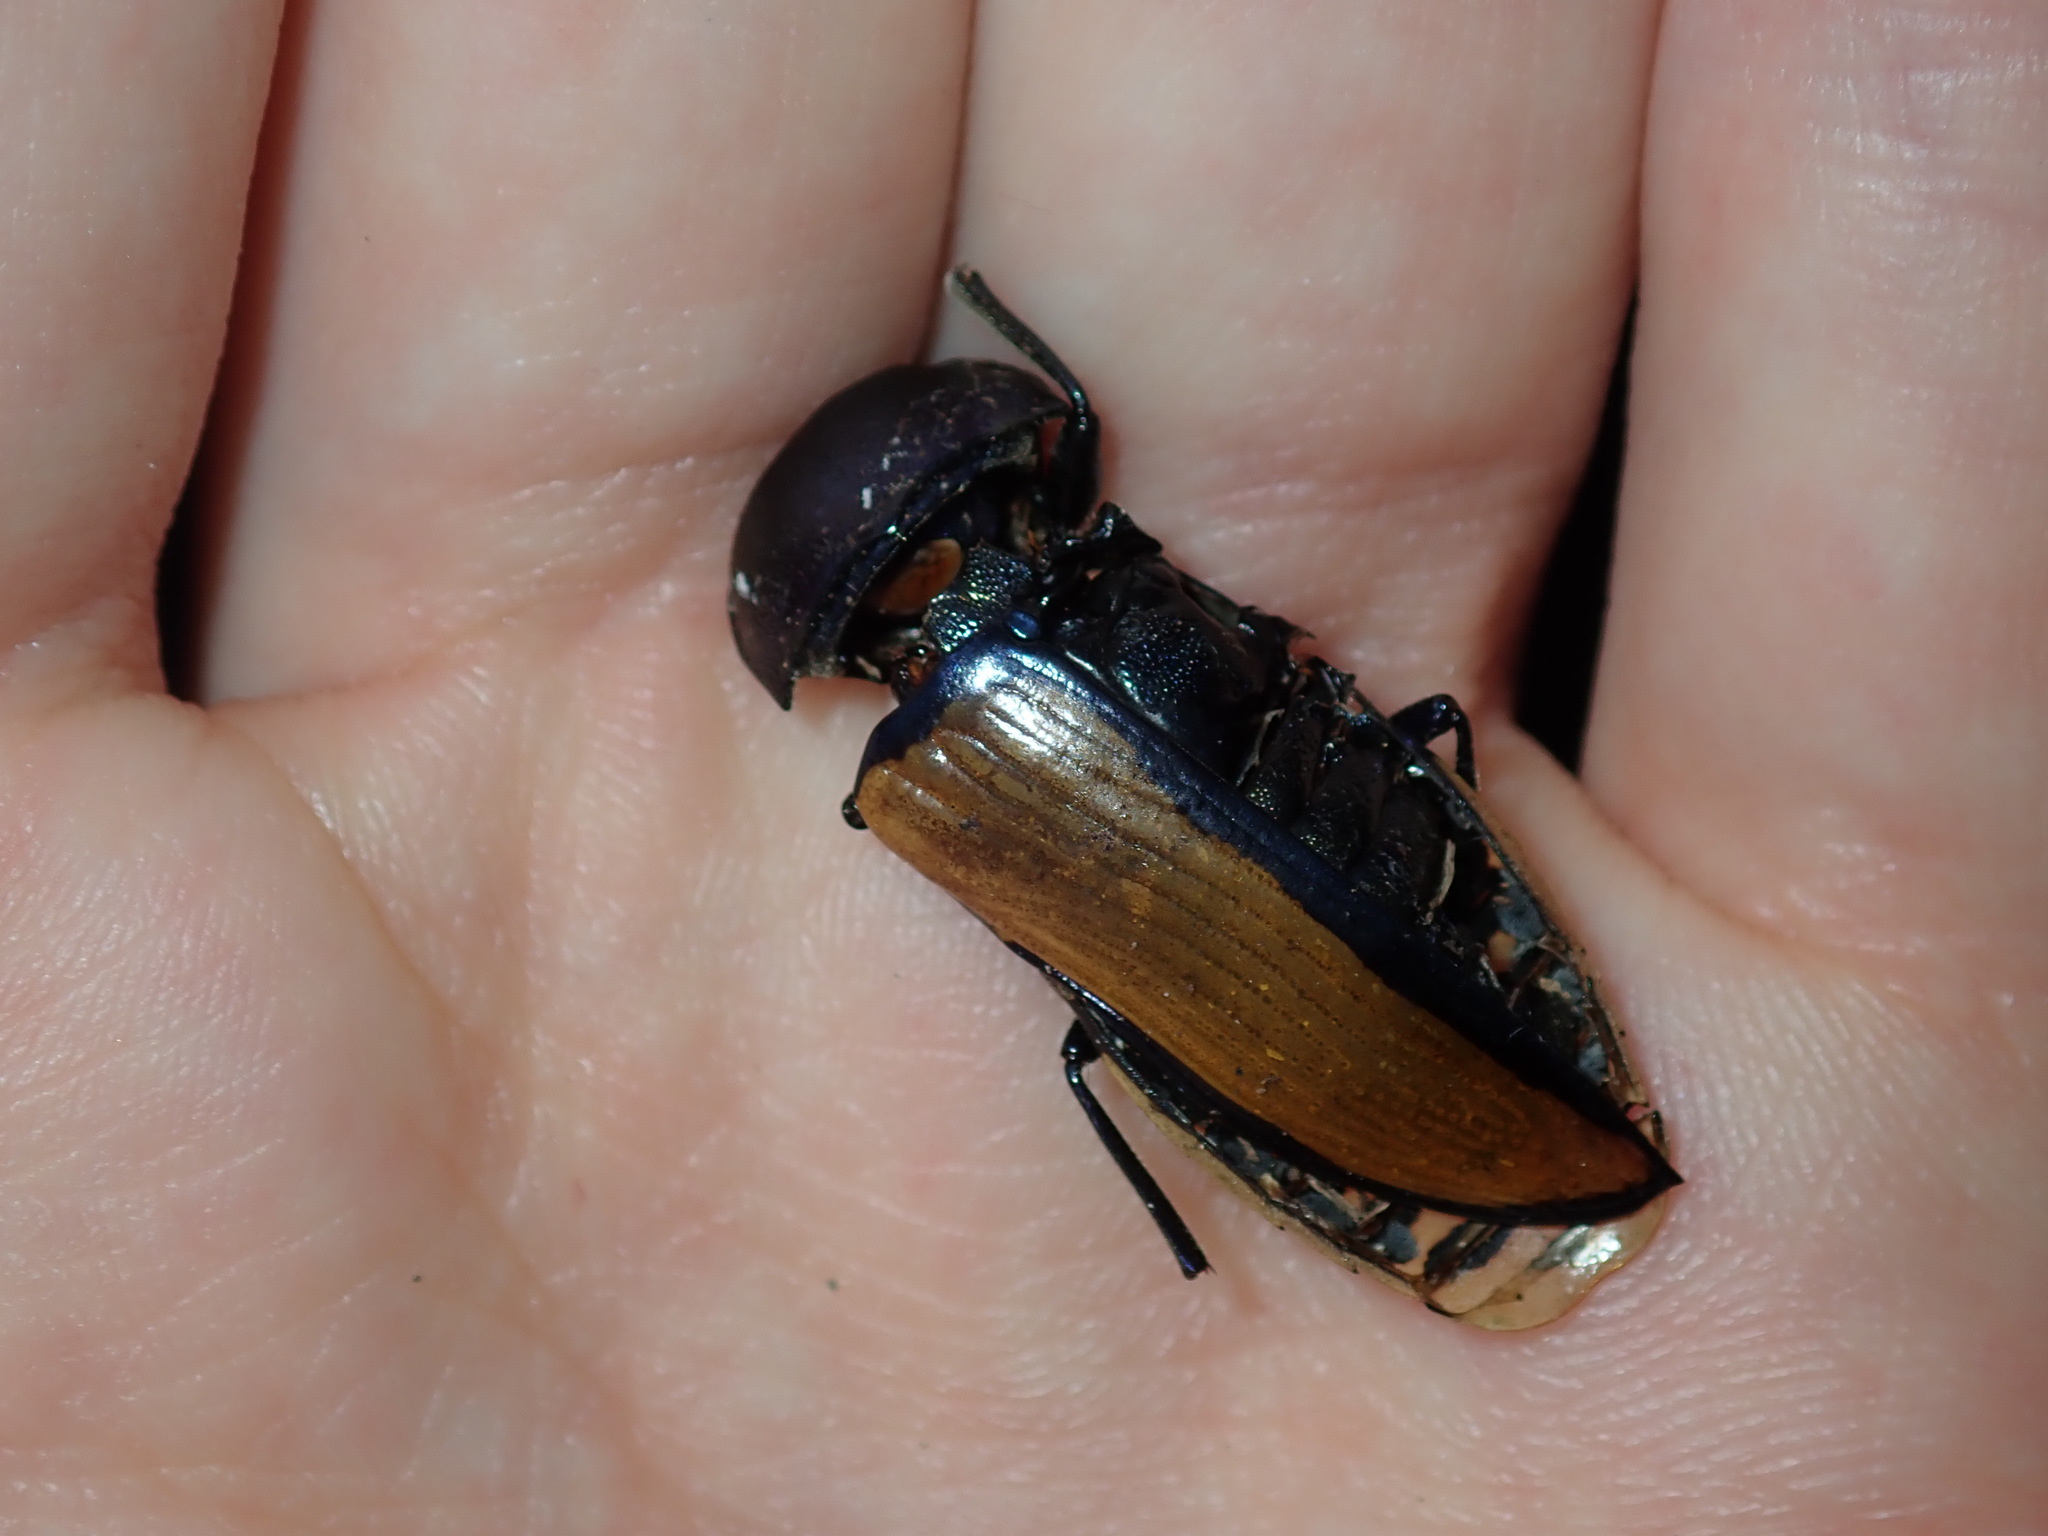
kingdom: Animalia
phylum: Arthropoda
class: Insecta
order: Coleoptera
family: Buprestidae
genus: Temognatha
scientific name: Temognatha suturalis
